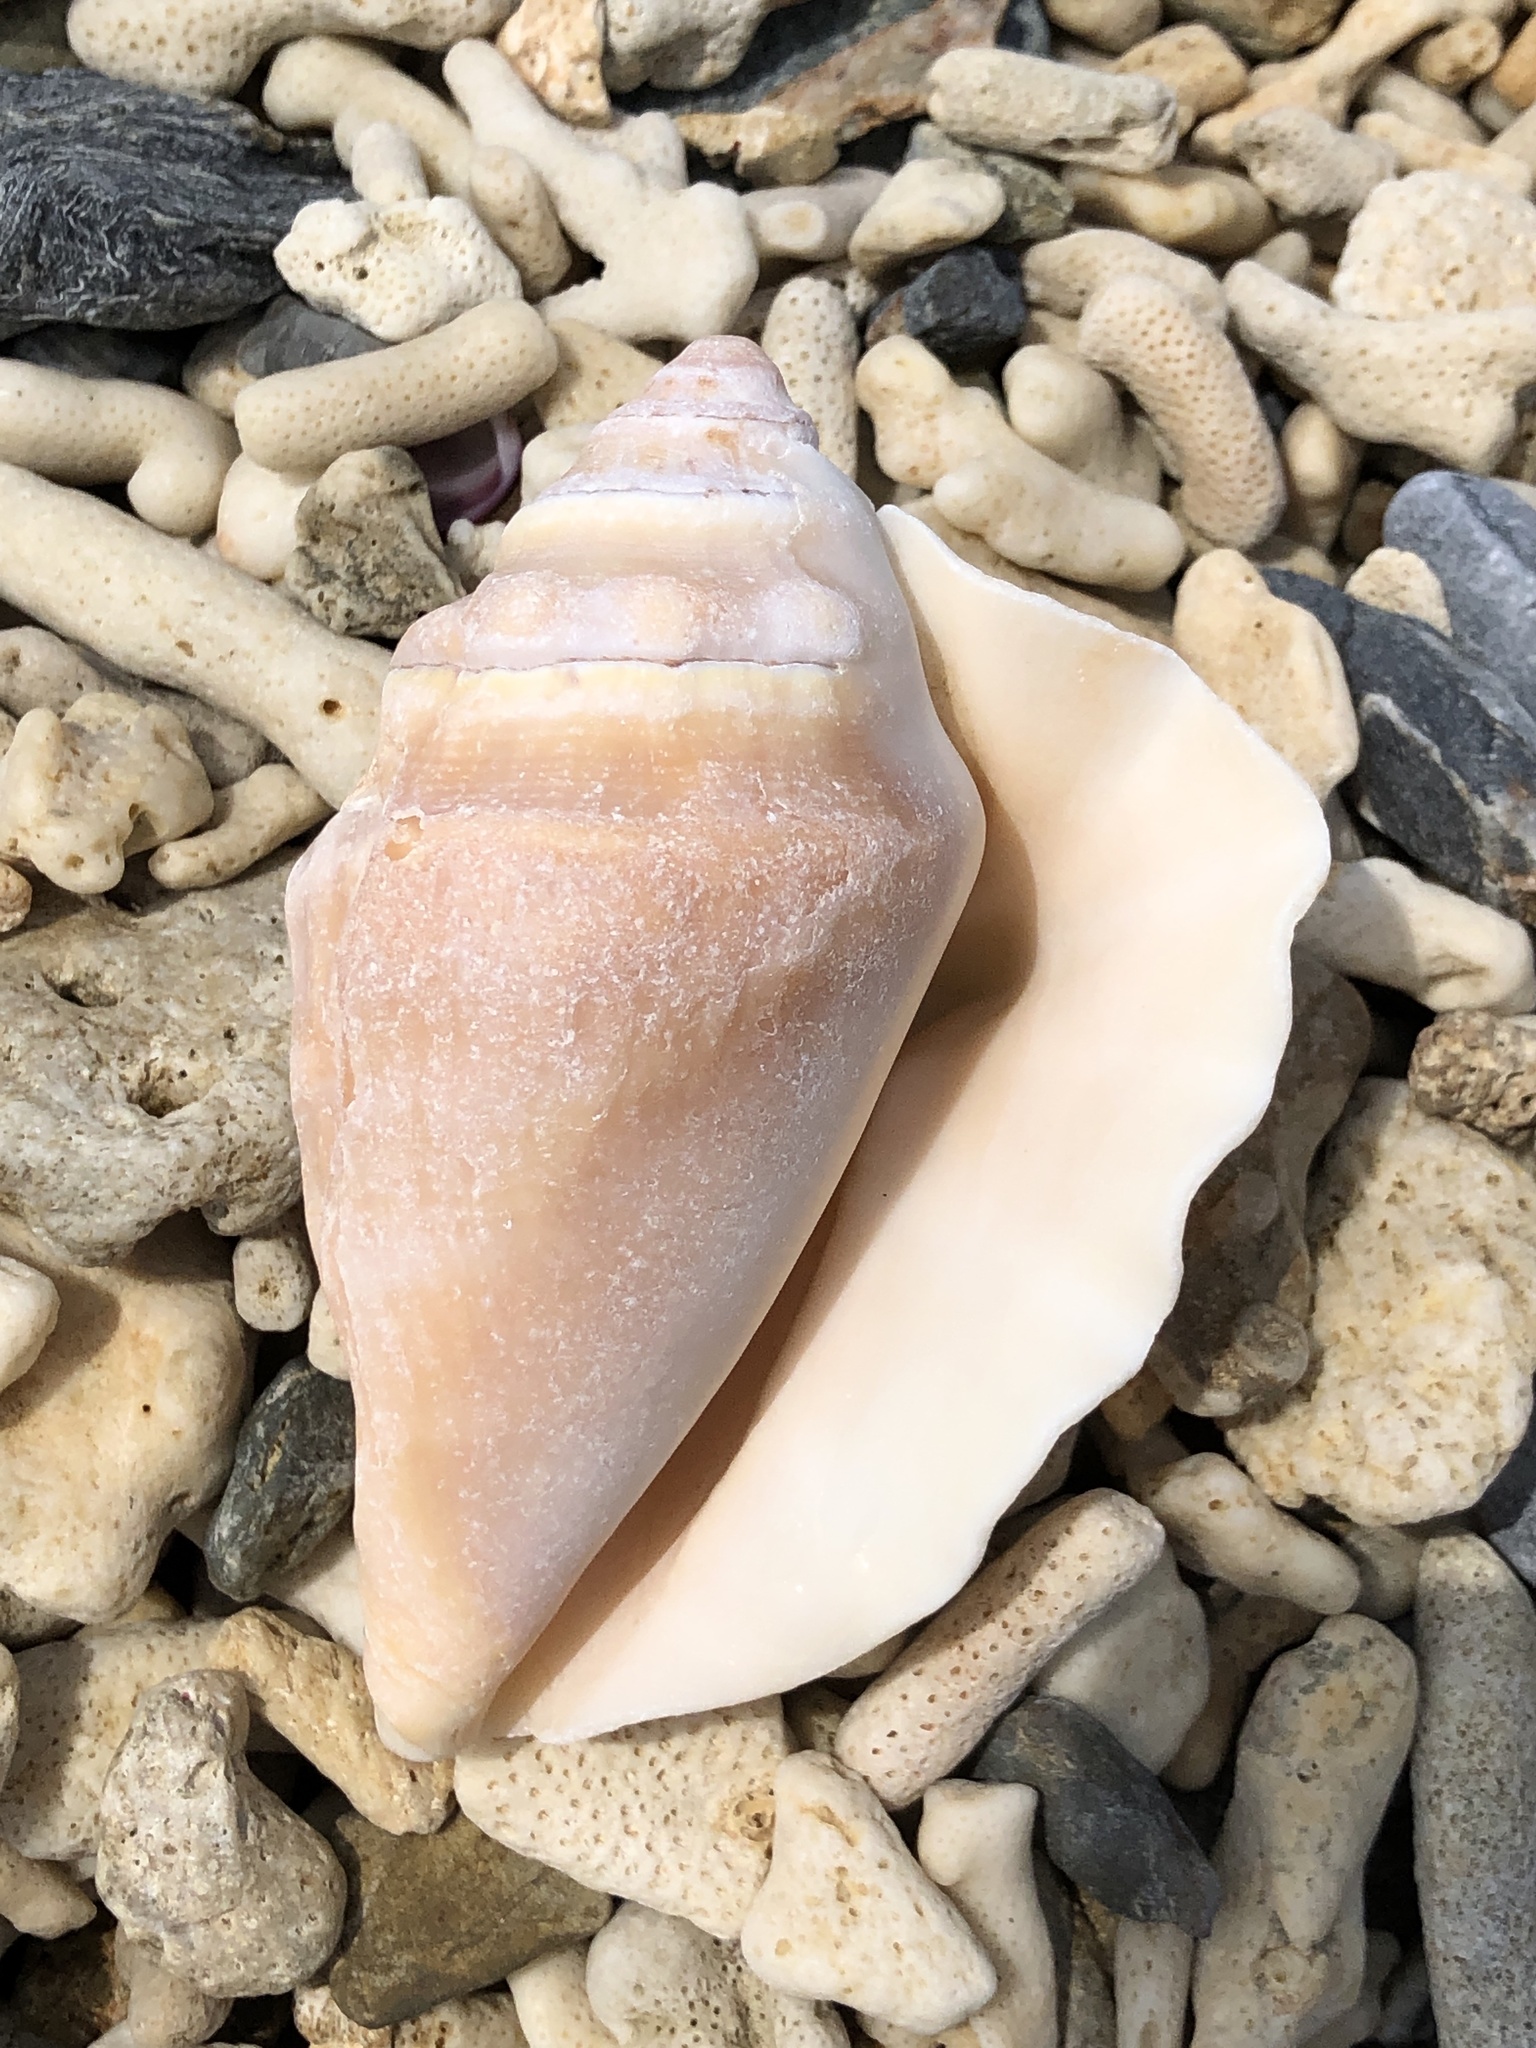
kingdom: Animalia
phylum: Mollusca
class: Gastropoda
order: Littorinimorpha
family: Strombidae
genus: Lambis
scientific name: Lambis lambis
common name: Common spider conch
